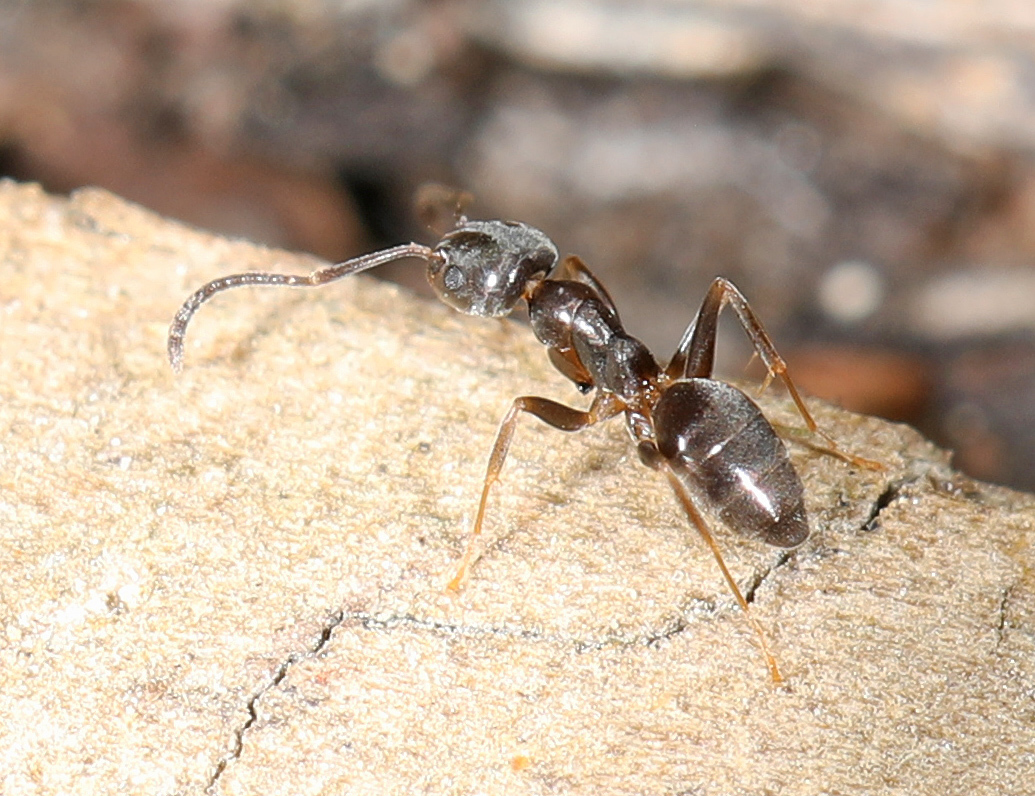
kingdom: Animalia
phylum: Arthropoda
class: Insecta
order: Hymenoptera
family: Formicidae
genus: Tapinoma
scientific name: Tapinoma sessile
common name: Odorous house ant
